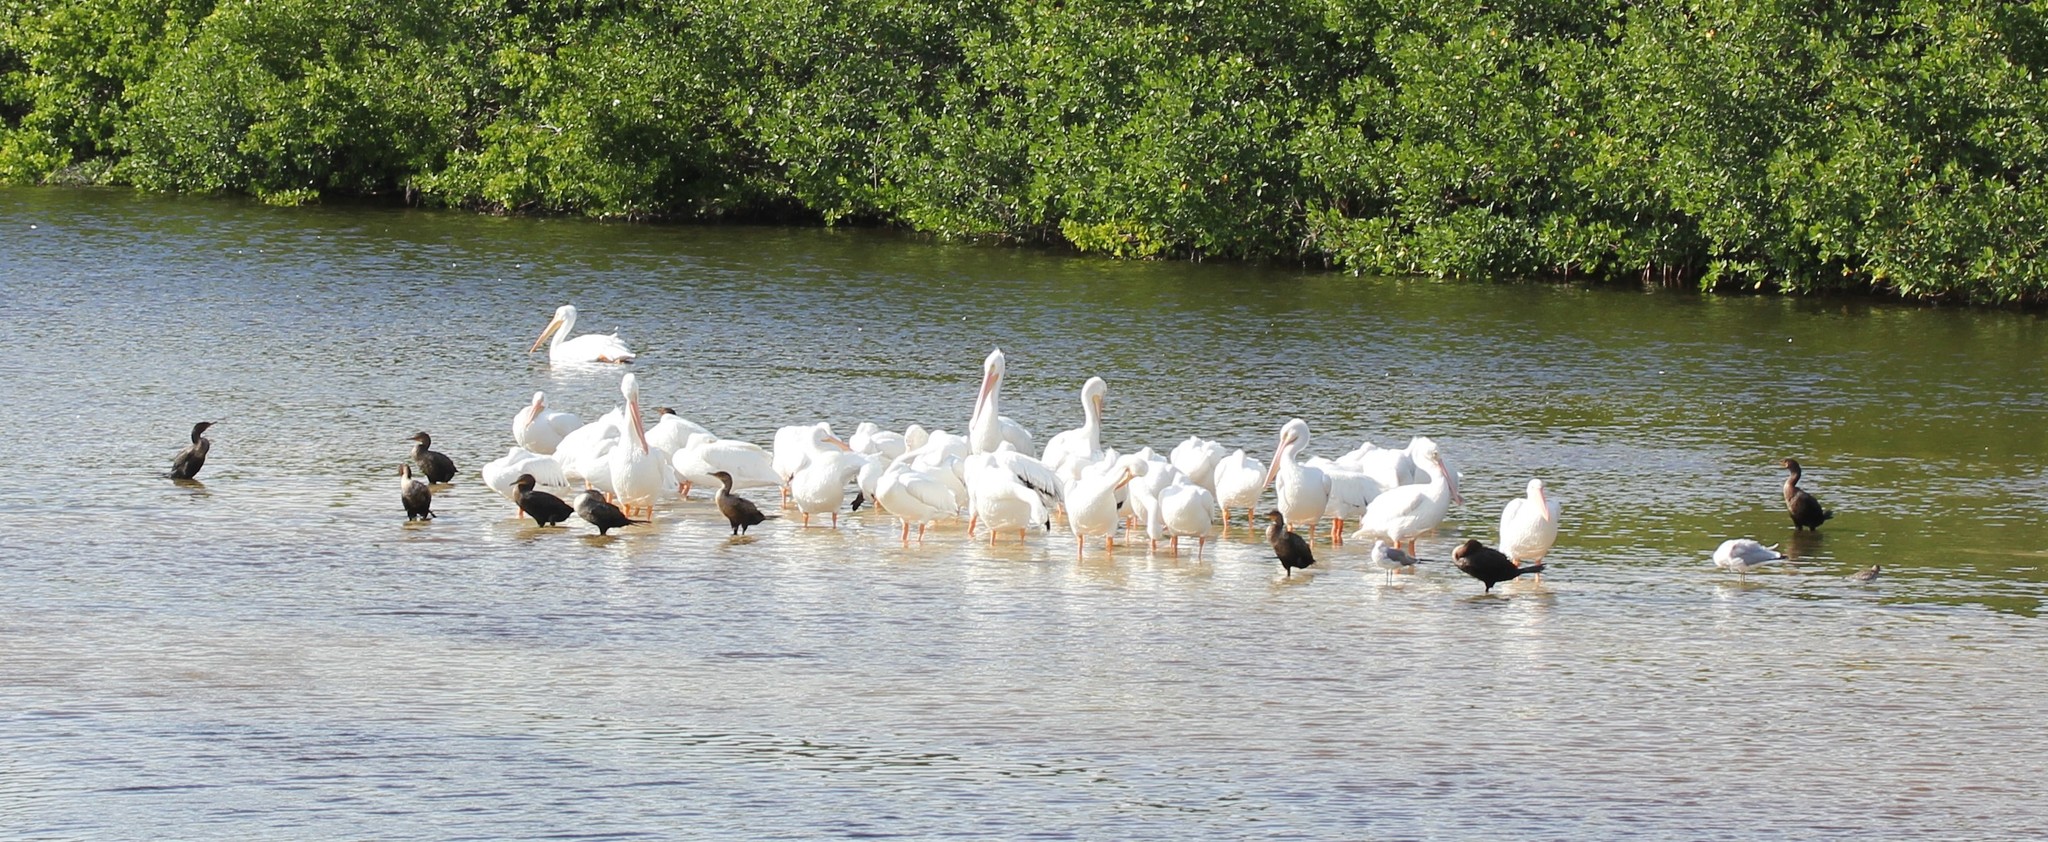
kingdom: Animalia
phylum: Chordata
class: Aves
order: Pelecaniformes
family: Pelecanidae
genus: Pelecanus
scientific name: Pelecanus erythrorhynchos
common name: American white pelican
